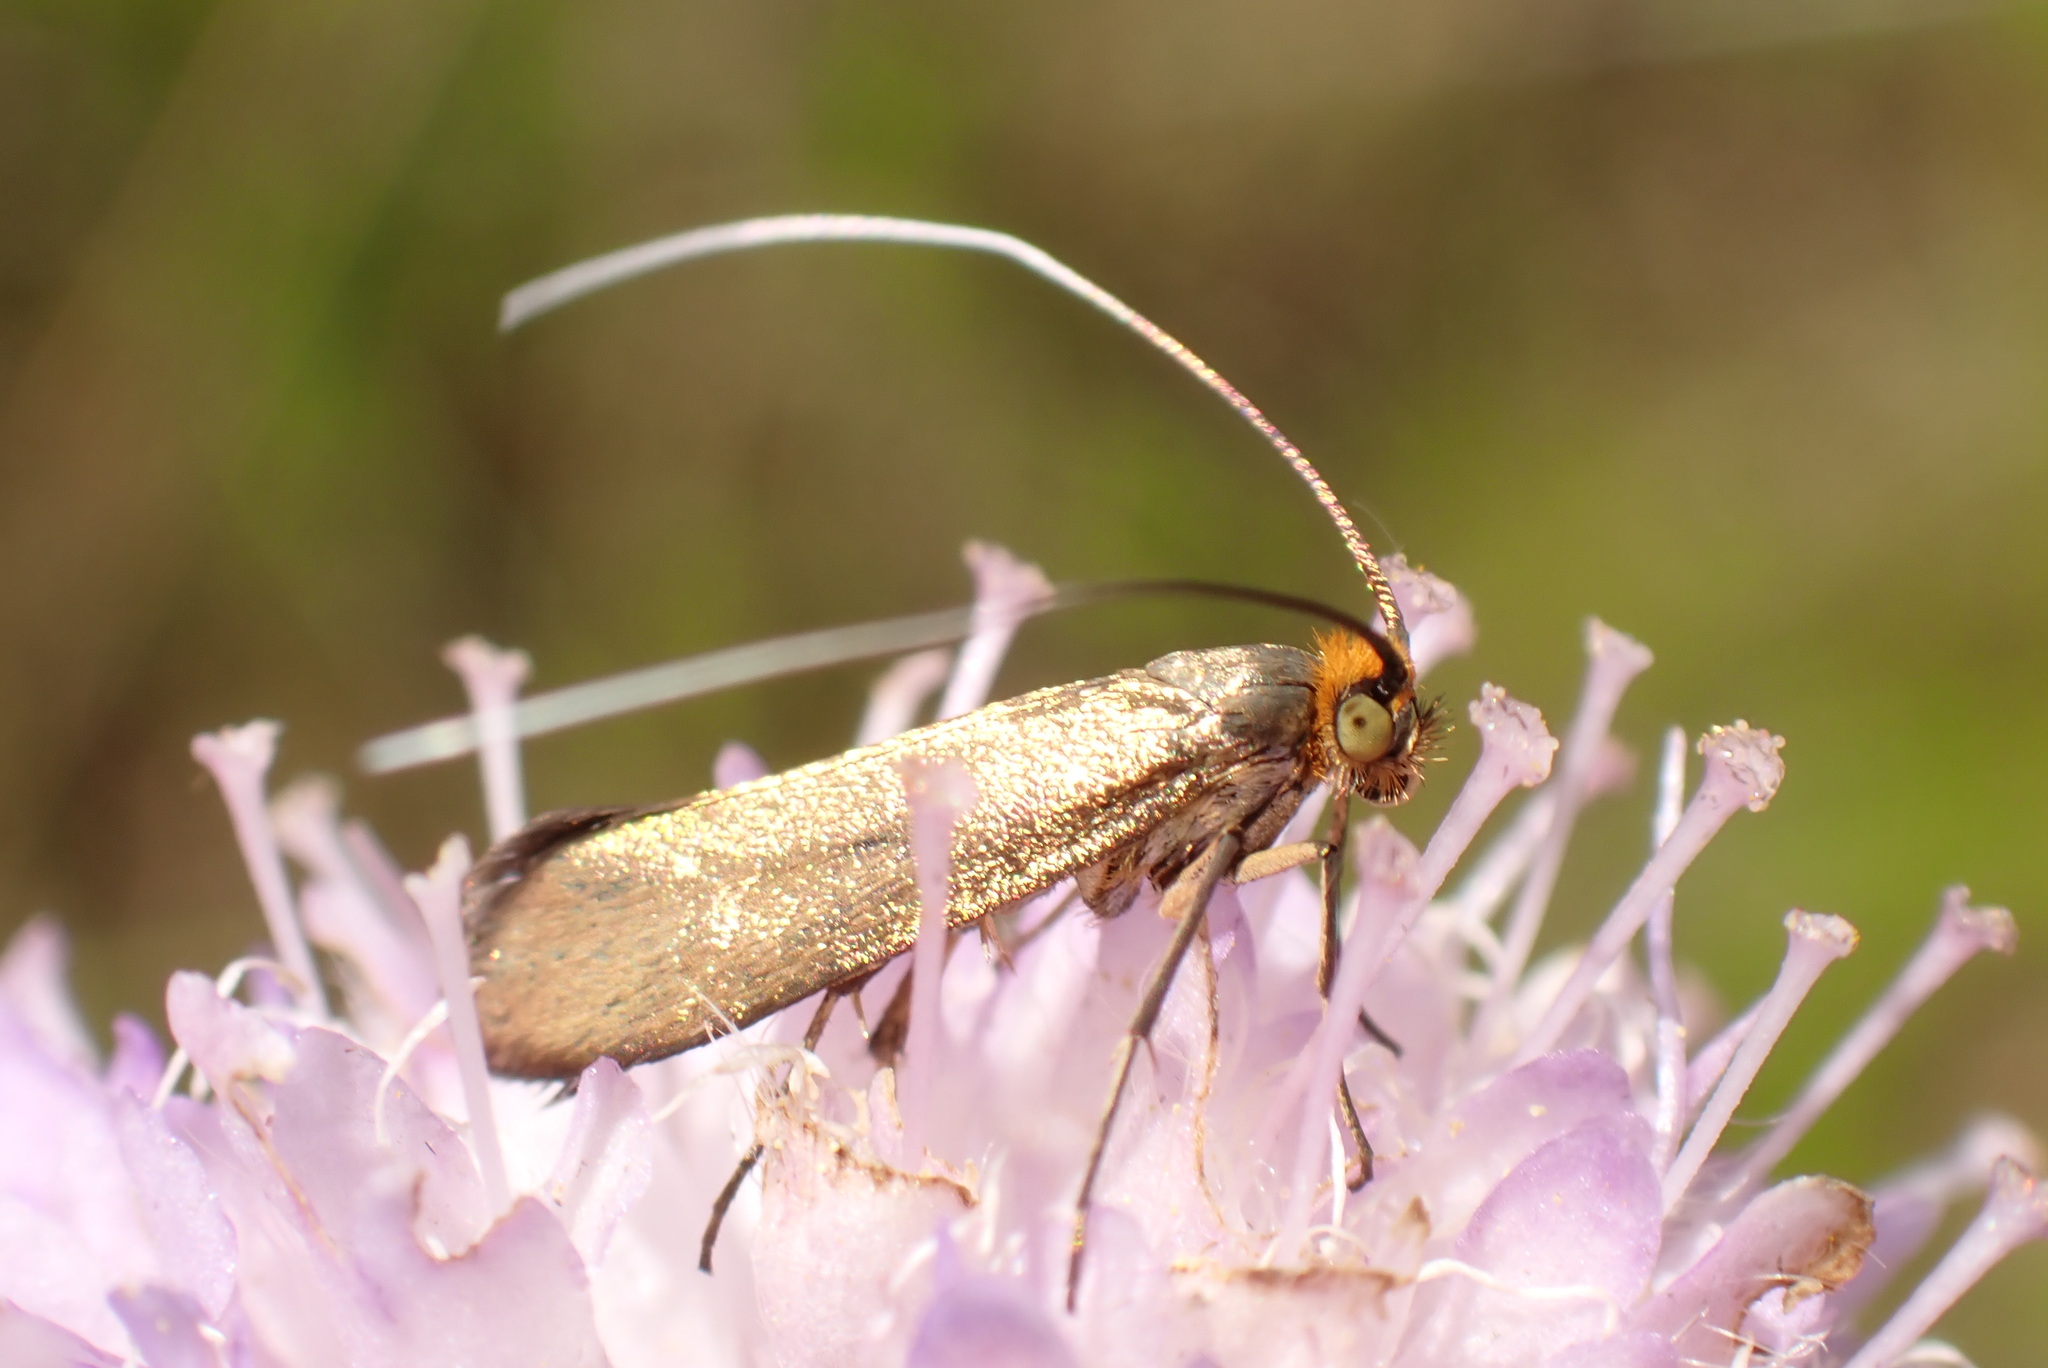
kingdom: Animalia
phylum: Arthropoda
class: Insecta
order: Lepidoptera
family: Adelidae
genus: Nemophora
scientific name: Nemophora metallica
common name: Brassy long-horn
